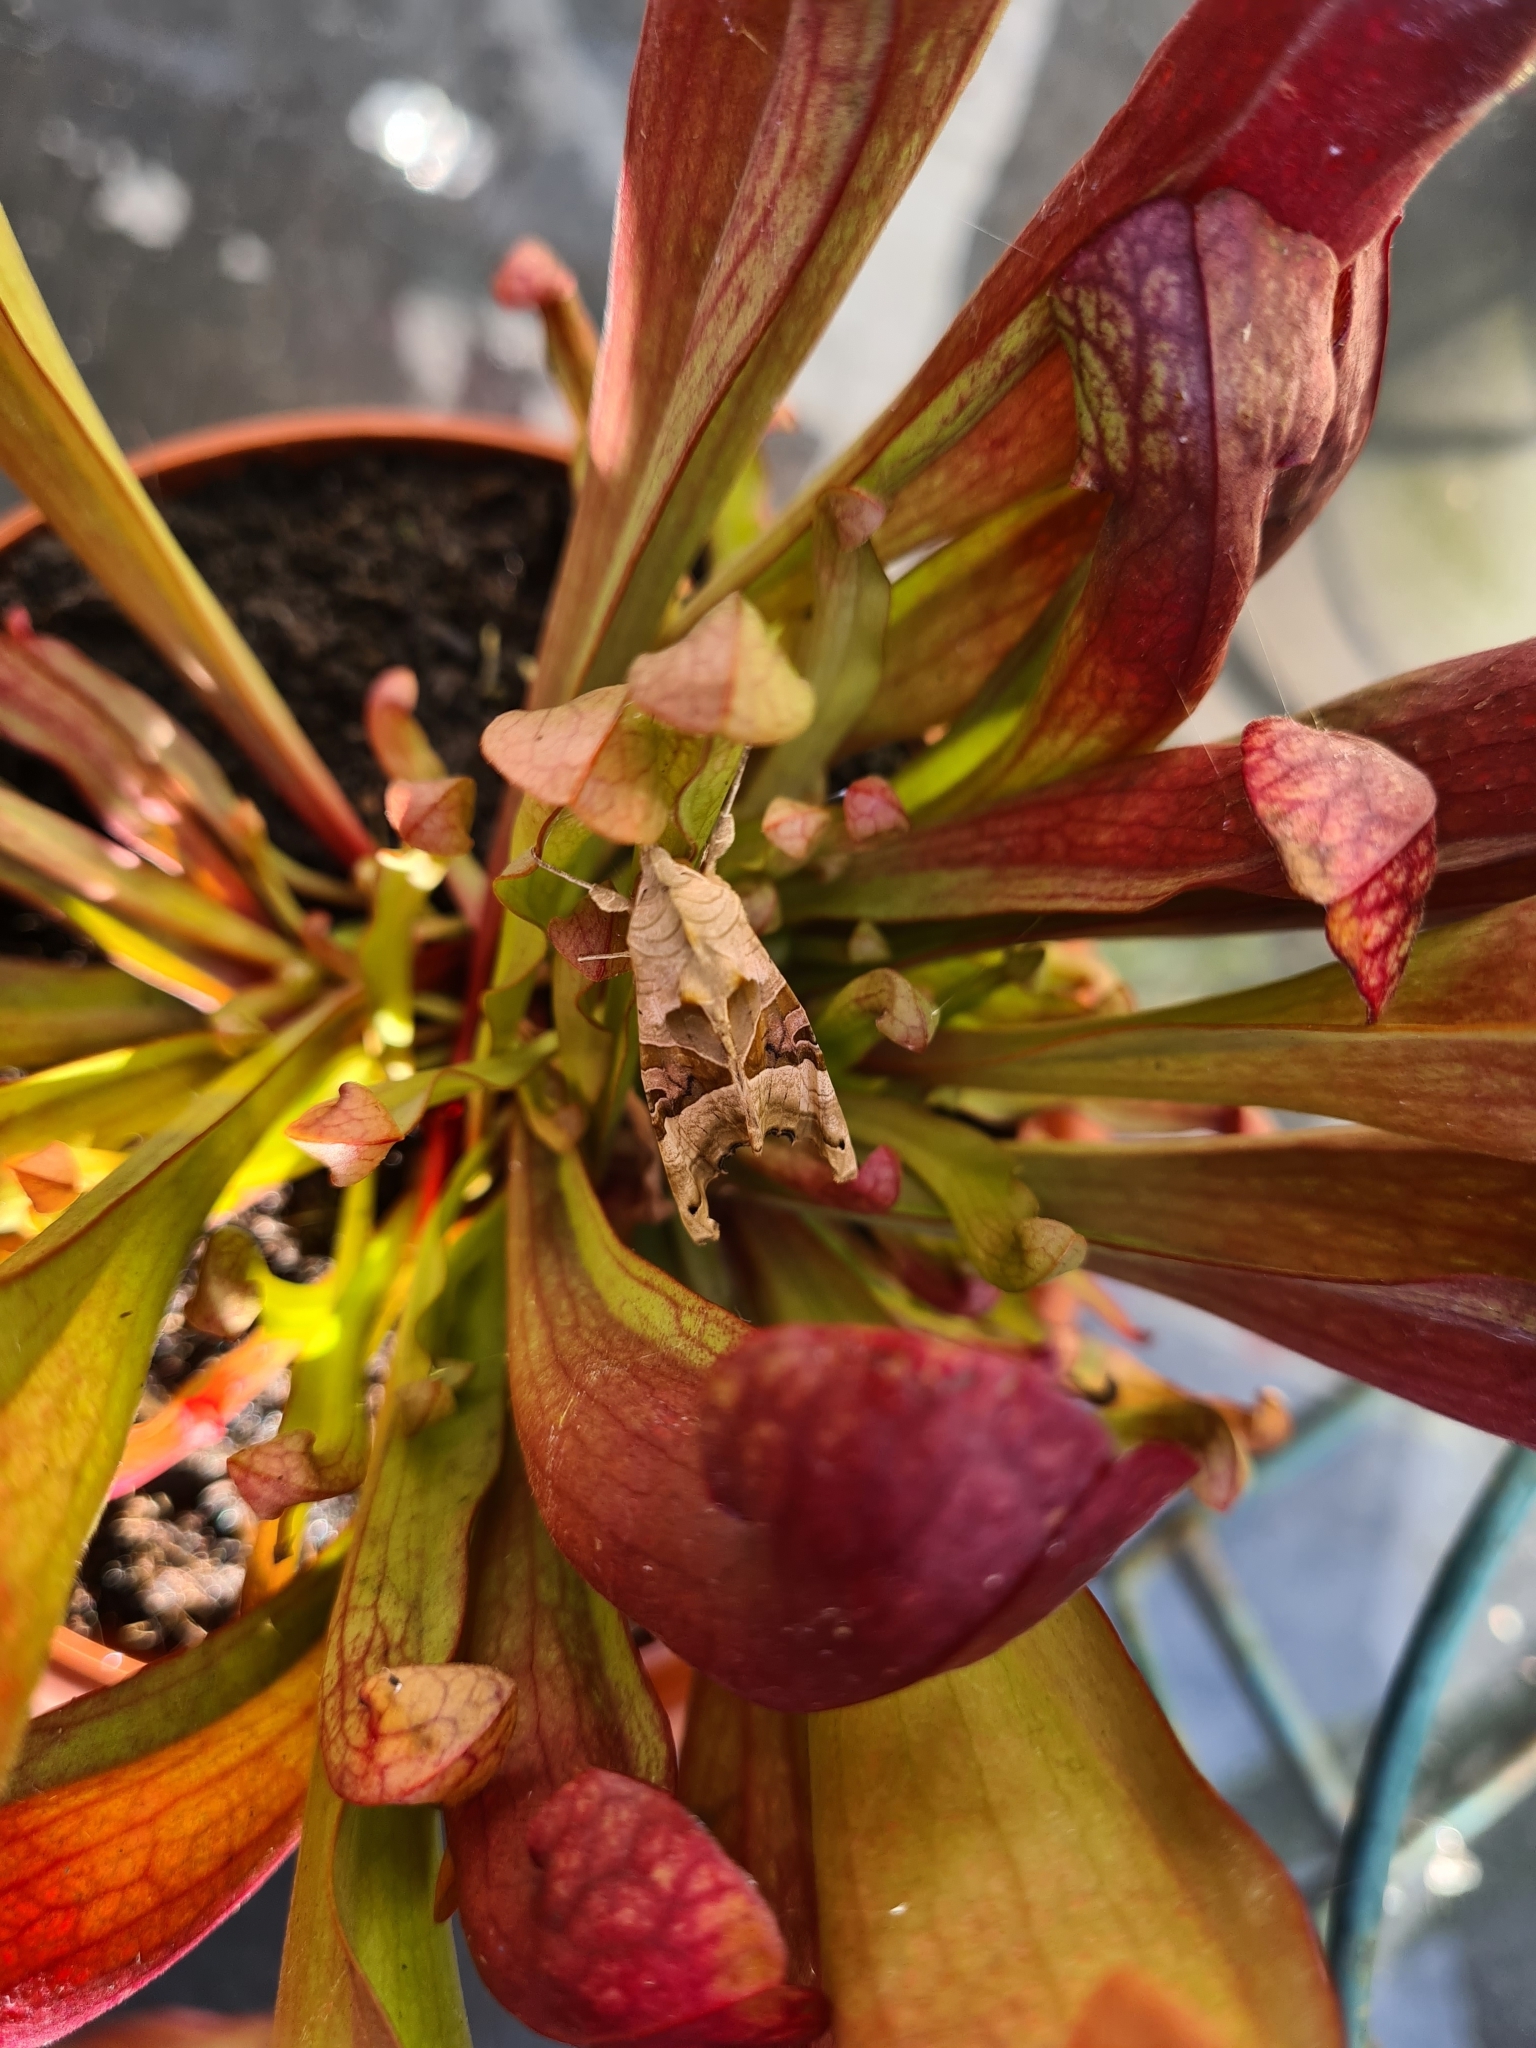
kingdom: Animalia
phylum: Arthropoda
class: Insecta
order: Lepidoptera
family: Noctuidae
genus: Phlogophora
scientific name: Phlogophora meticulosa
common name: Angle shades
